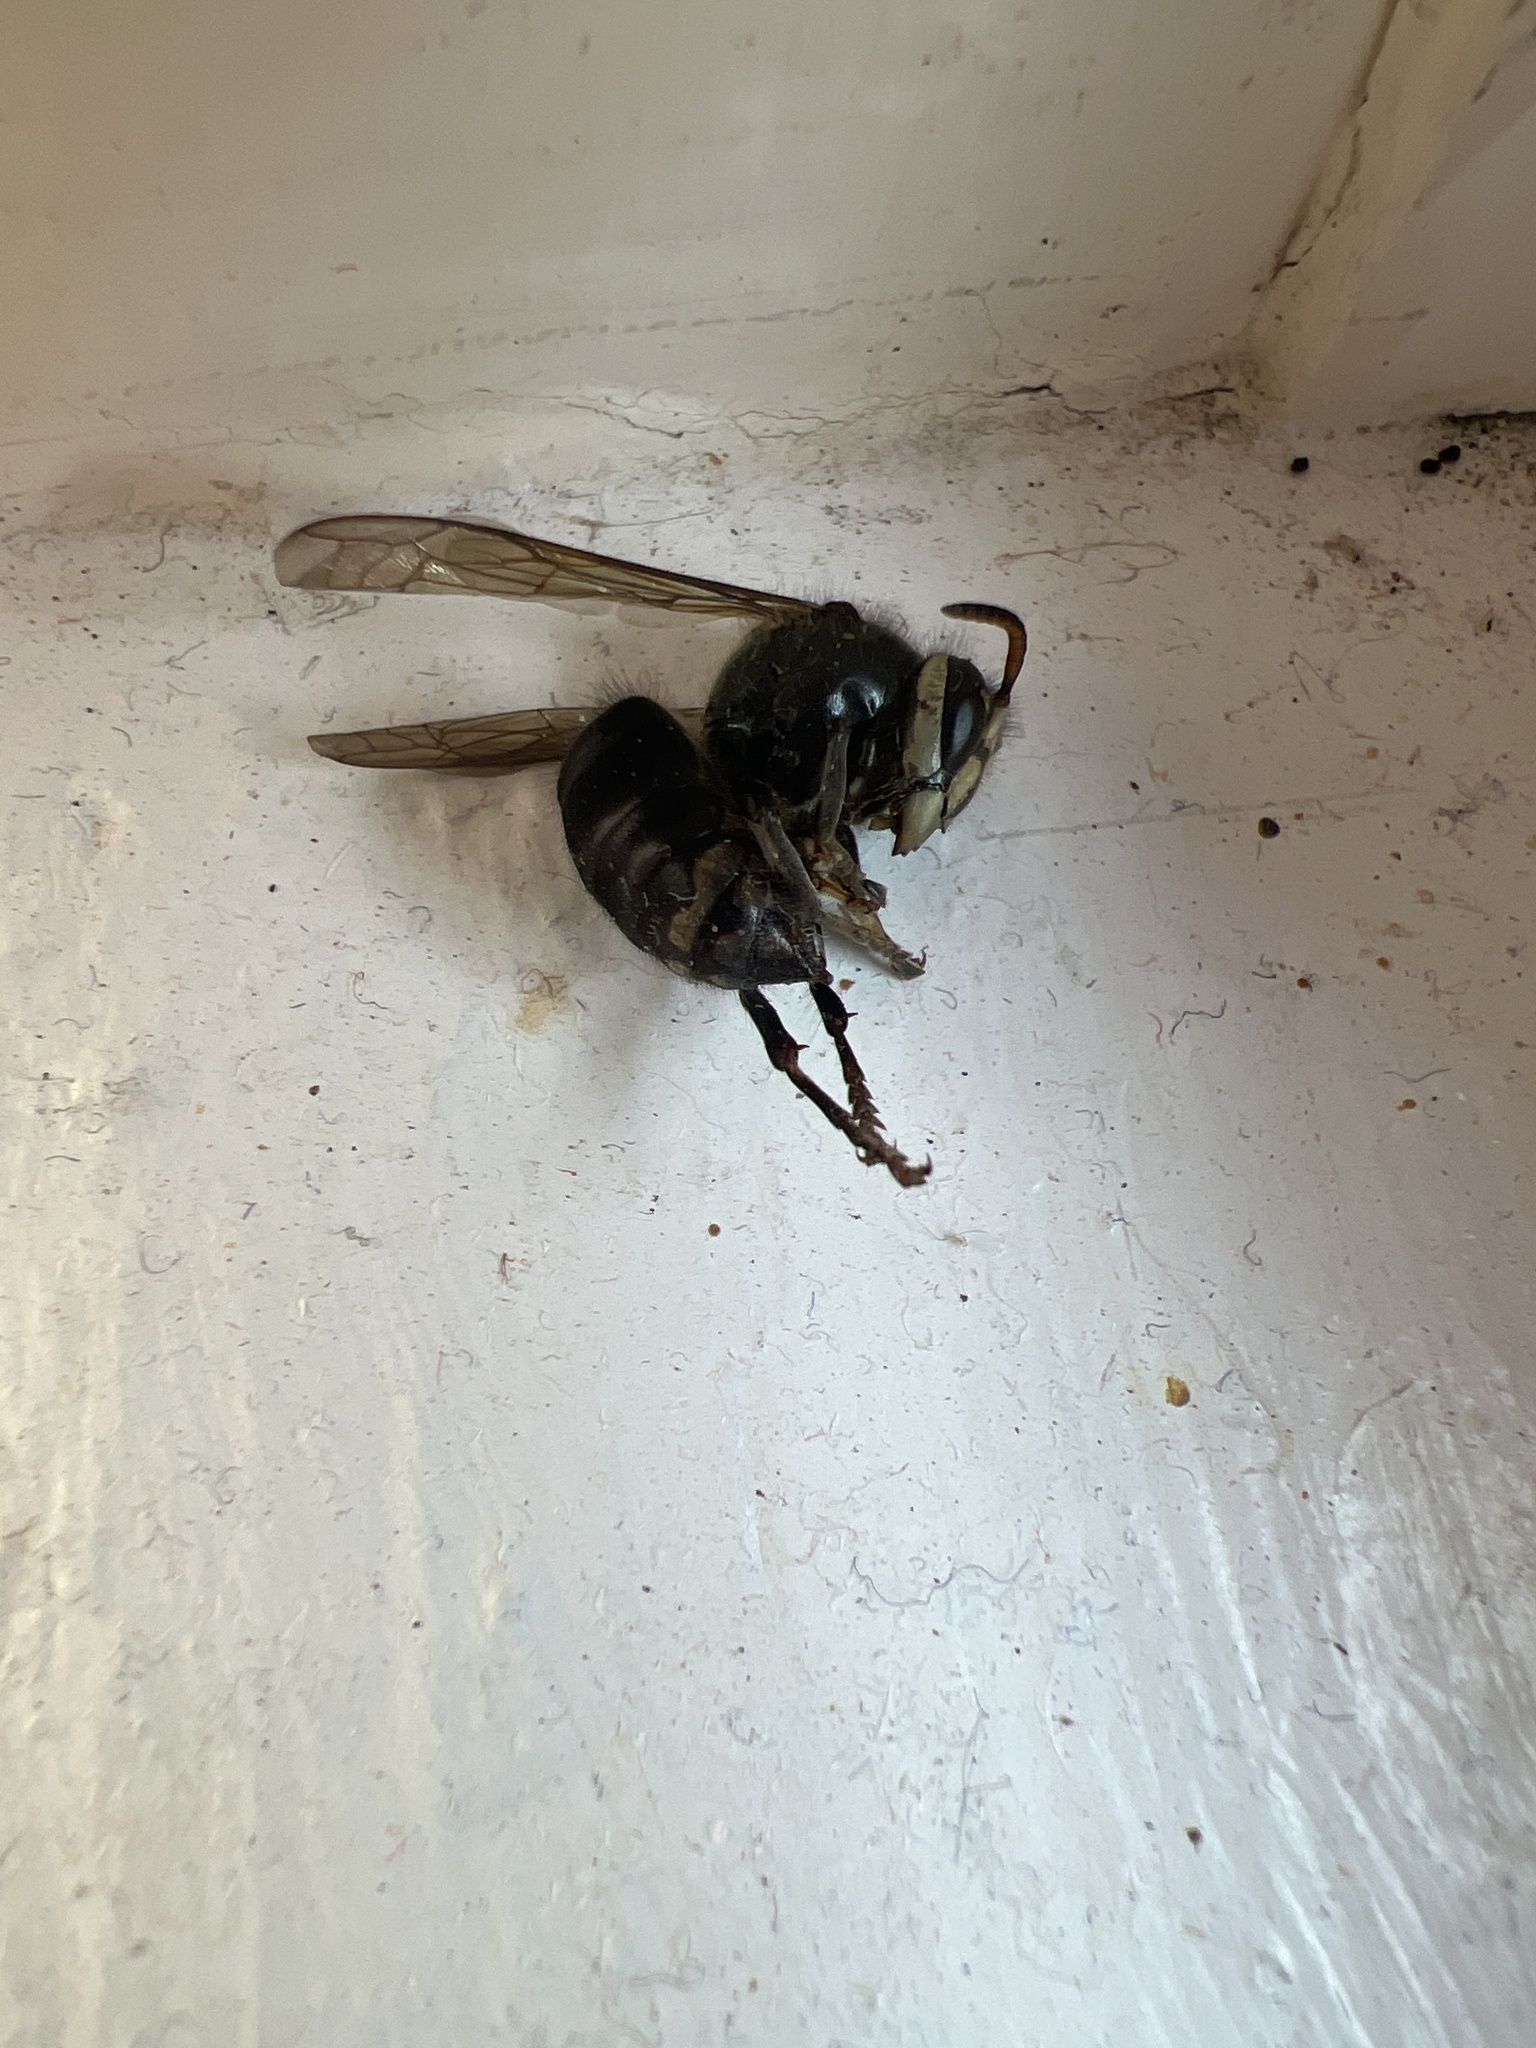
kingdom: Animalia
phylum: Arthropoda
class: Insecta
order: Hymenoptera
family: Vespidae
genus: Dolichovespula
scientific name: Dolichovespula maculata
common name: Bald-faced hornet
